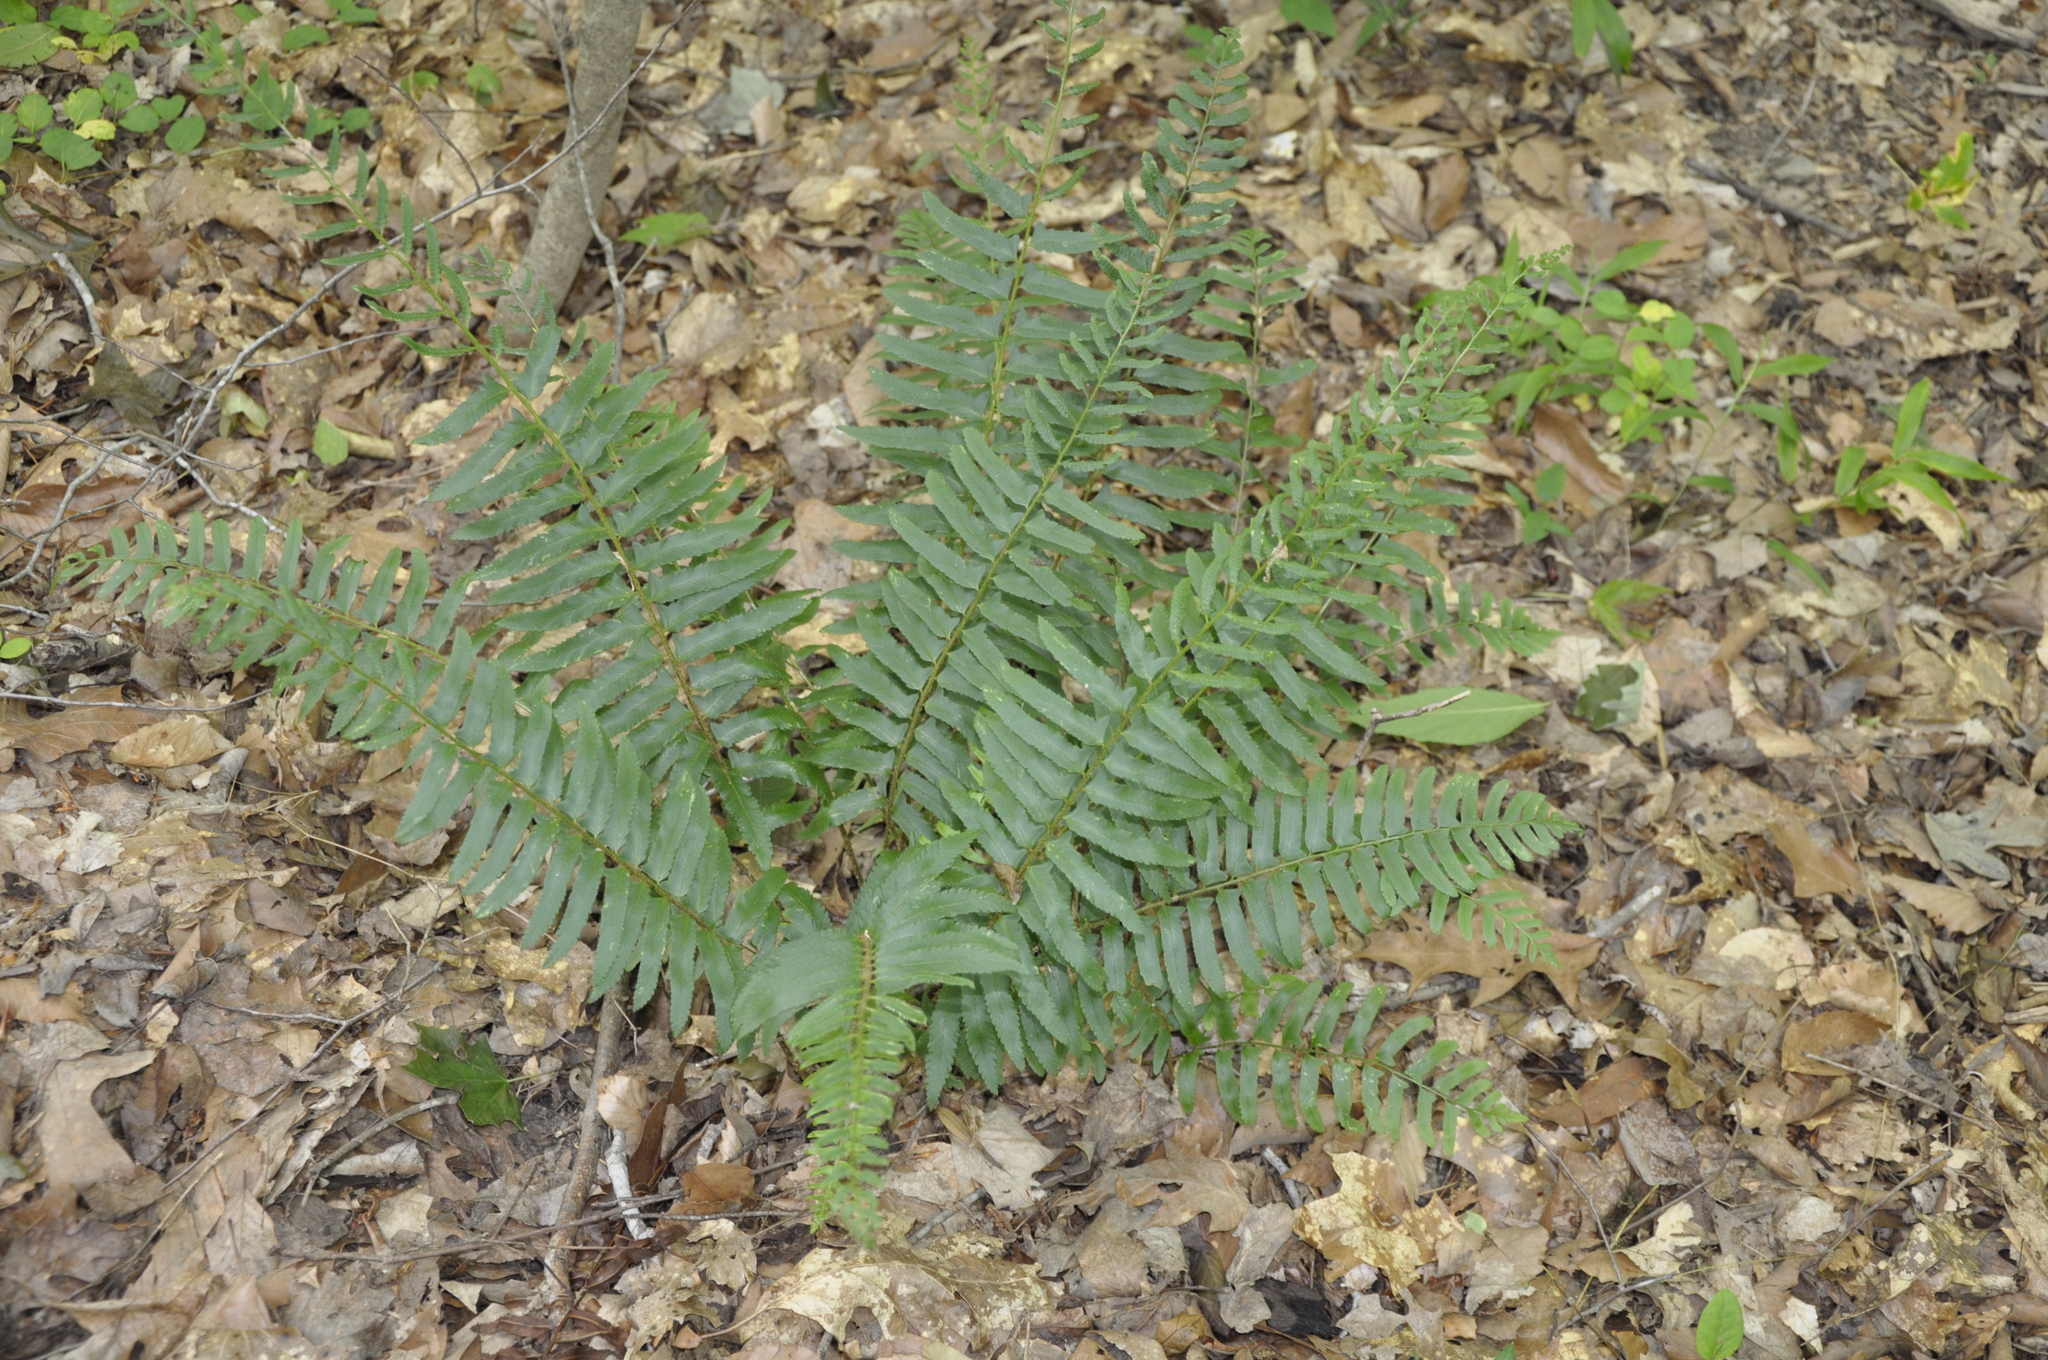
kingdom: Plantae
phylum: Tracheophyta
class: Polypodiopsida
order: Polypodiales
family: Dryopteridaceae
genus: Polystichum
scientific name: Polystichum acrostichoides
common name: Christmas fern
